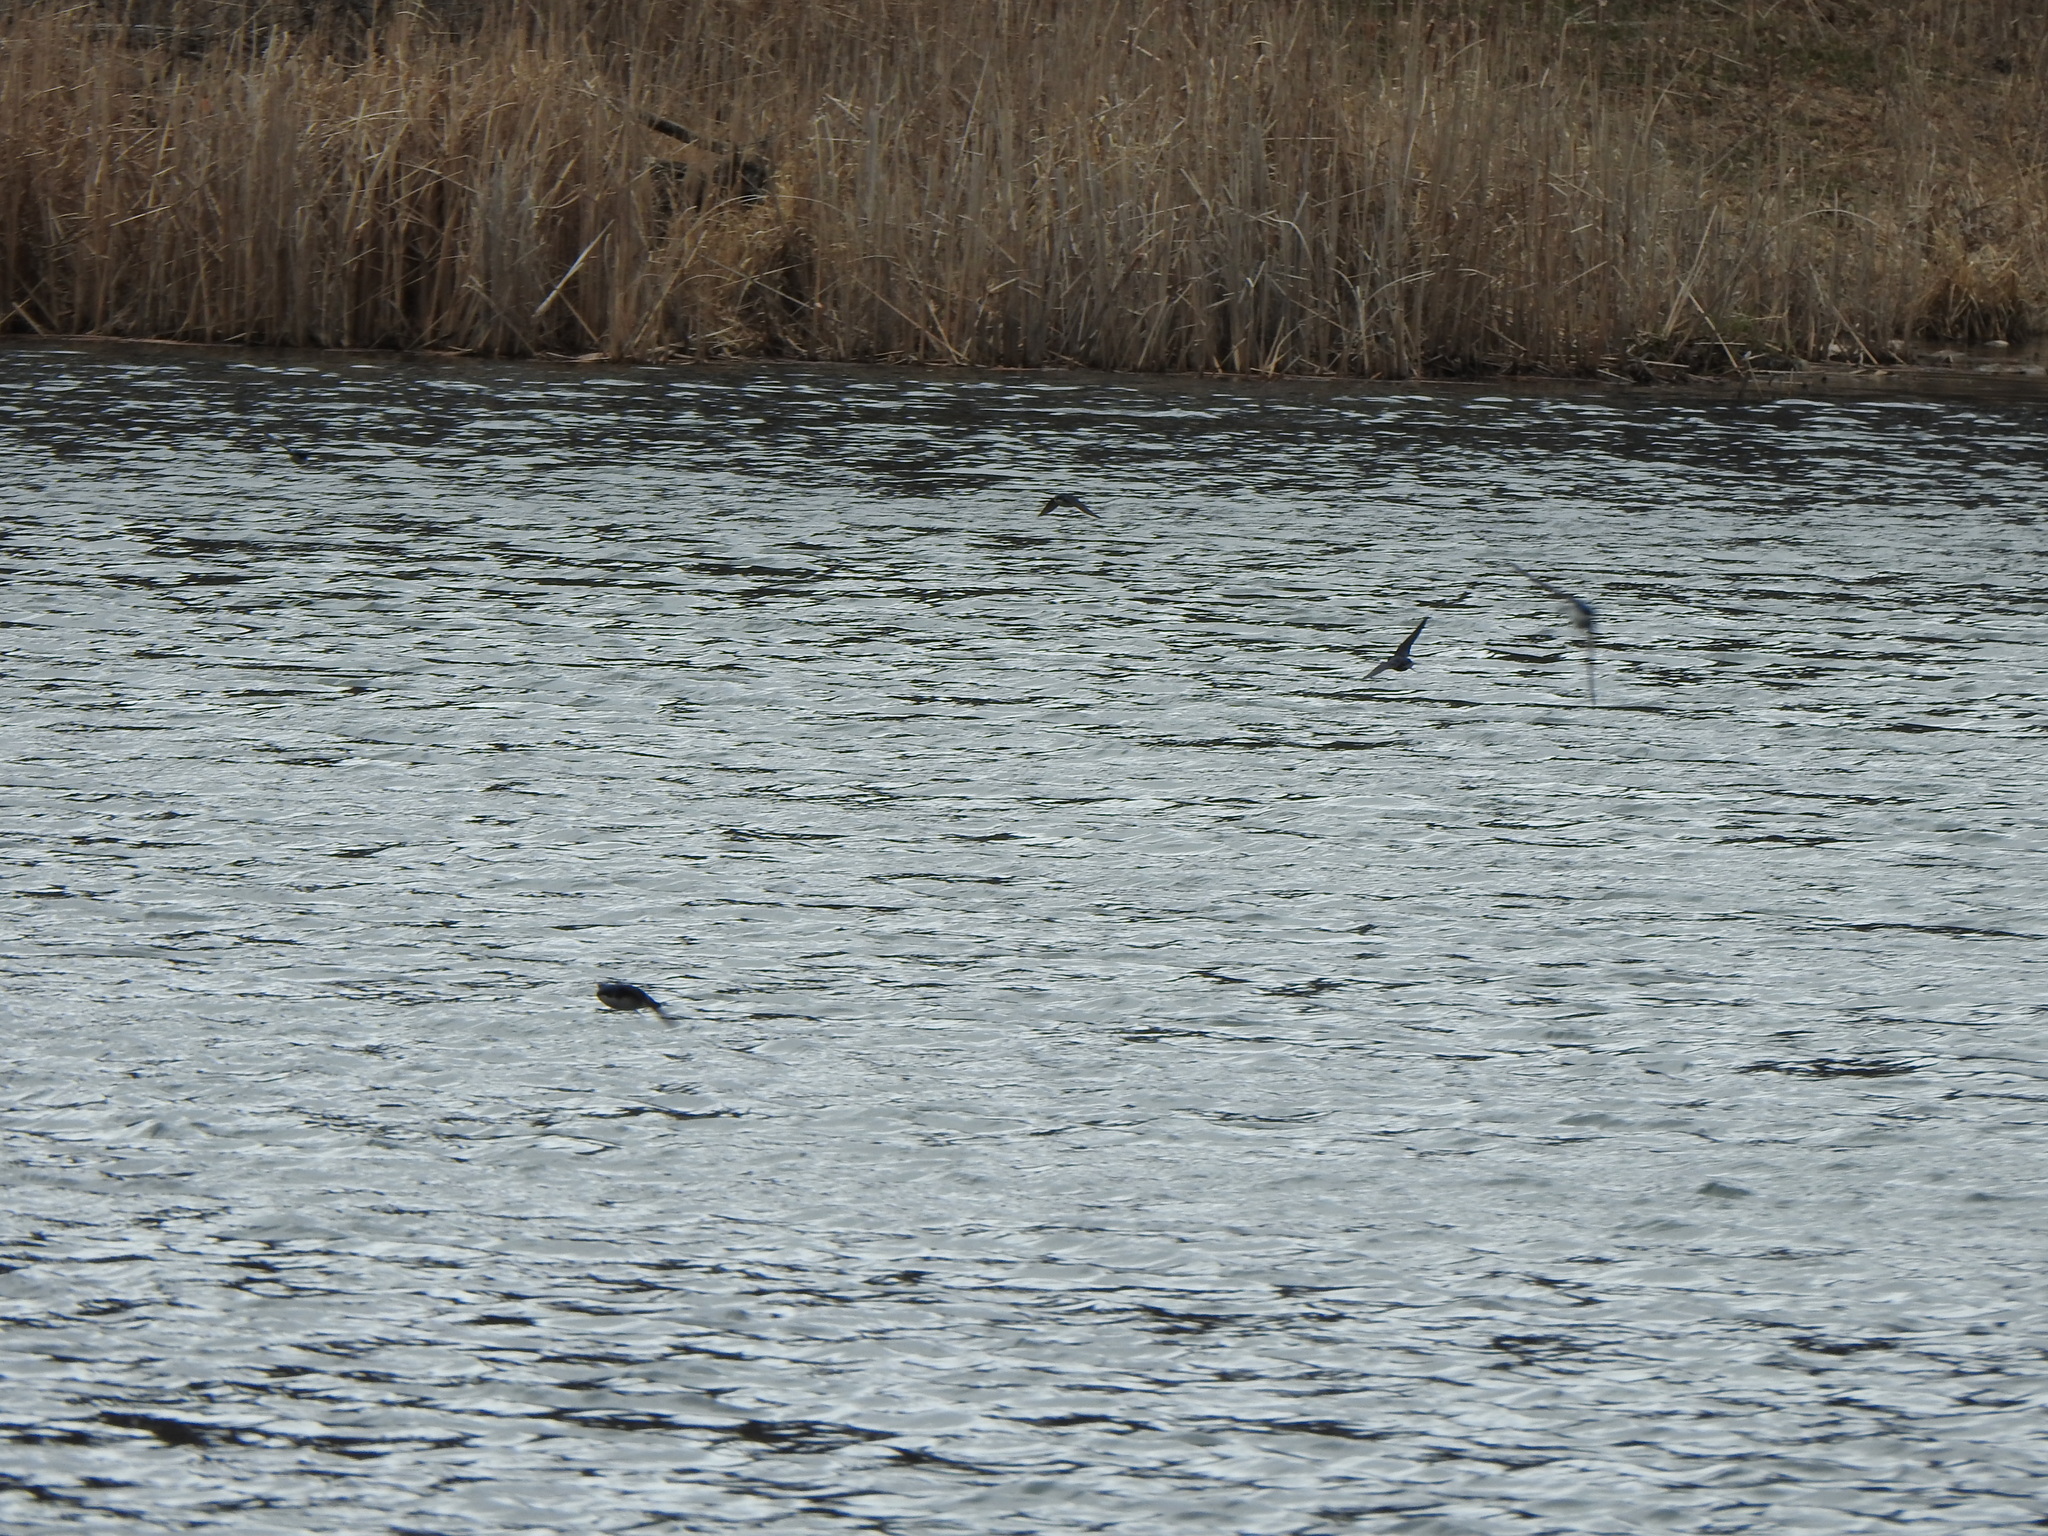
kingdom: Animalia
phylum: Chordata
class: Aves
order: Passeriformes
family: Hirundinidae
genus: Tachycineta
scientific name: Tachycineta bicolor
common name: Tree swallow
